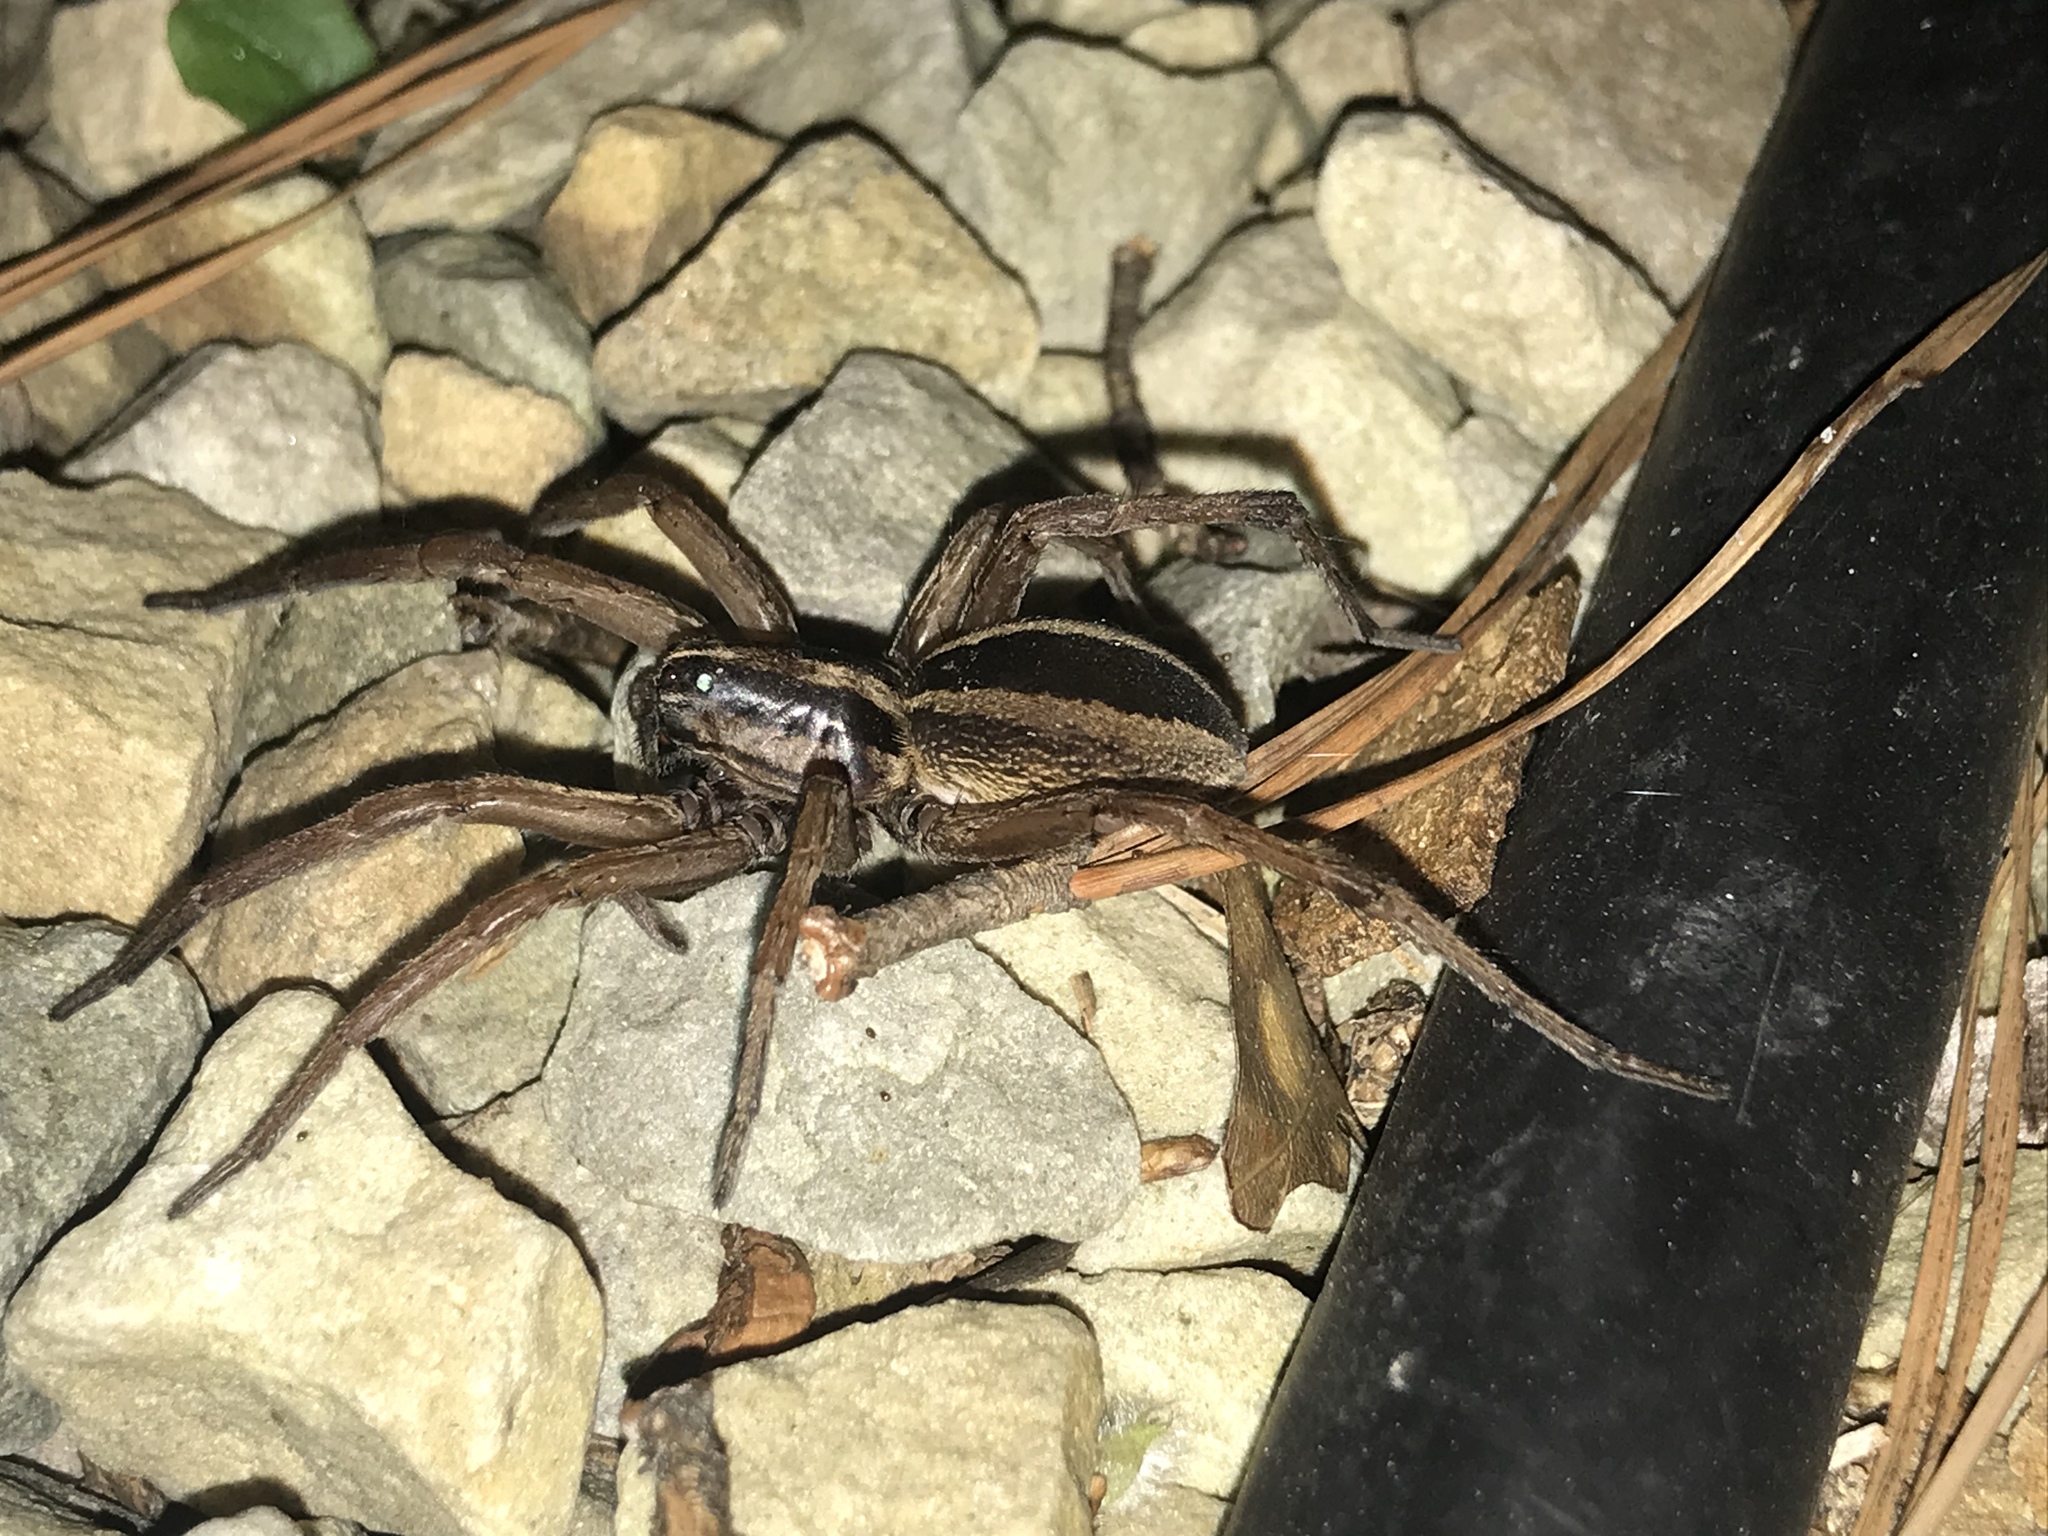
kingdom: Animalia
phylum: Arthropoda
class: Arachnida
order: Araneae
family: Lycosidae
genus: Rabidosa
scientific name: Rabidosa punctulata
